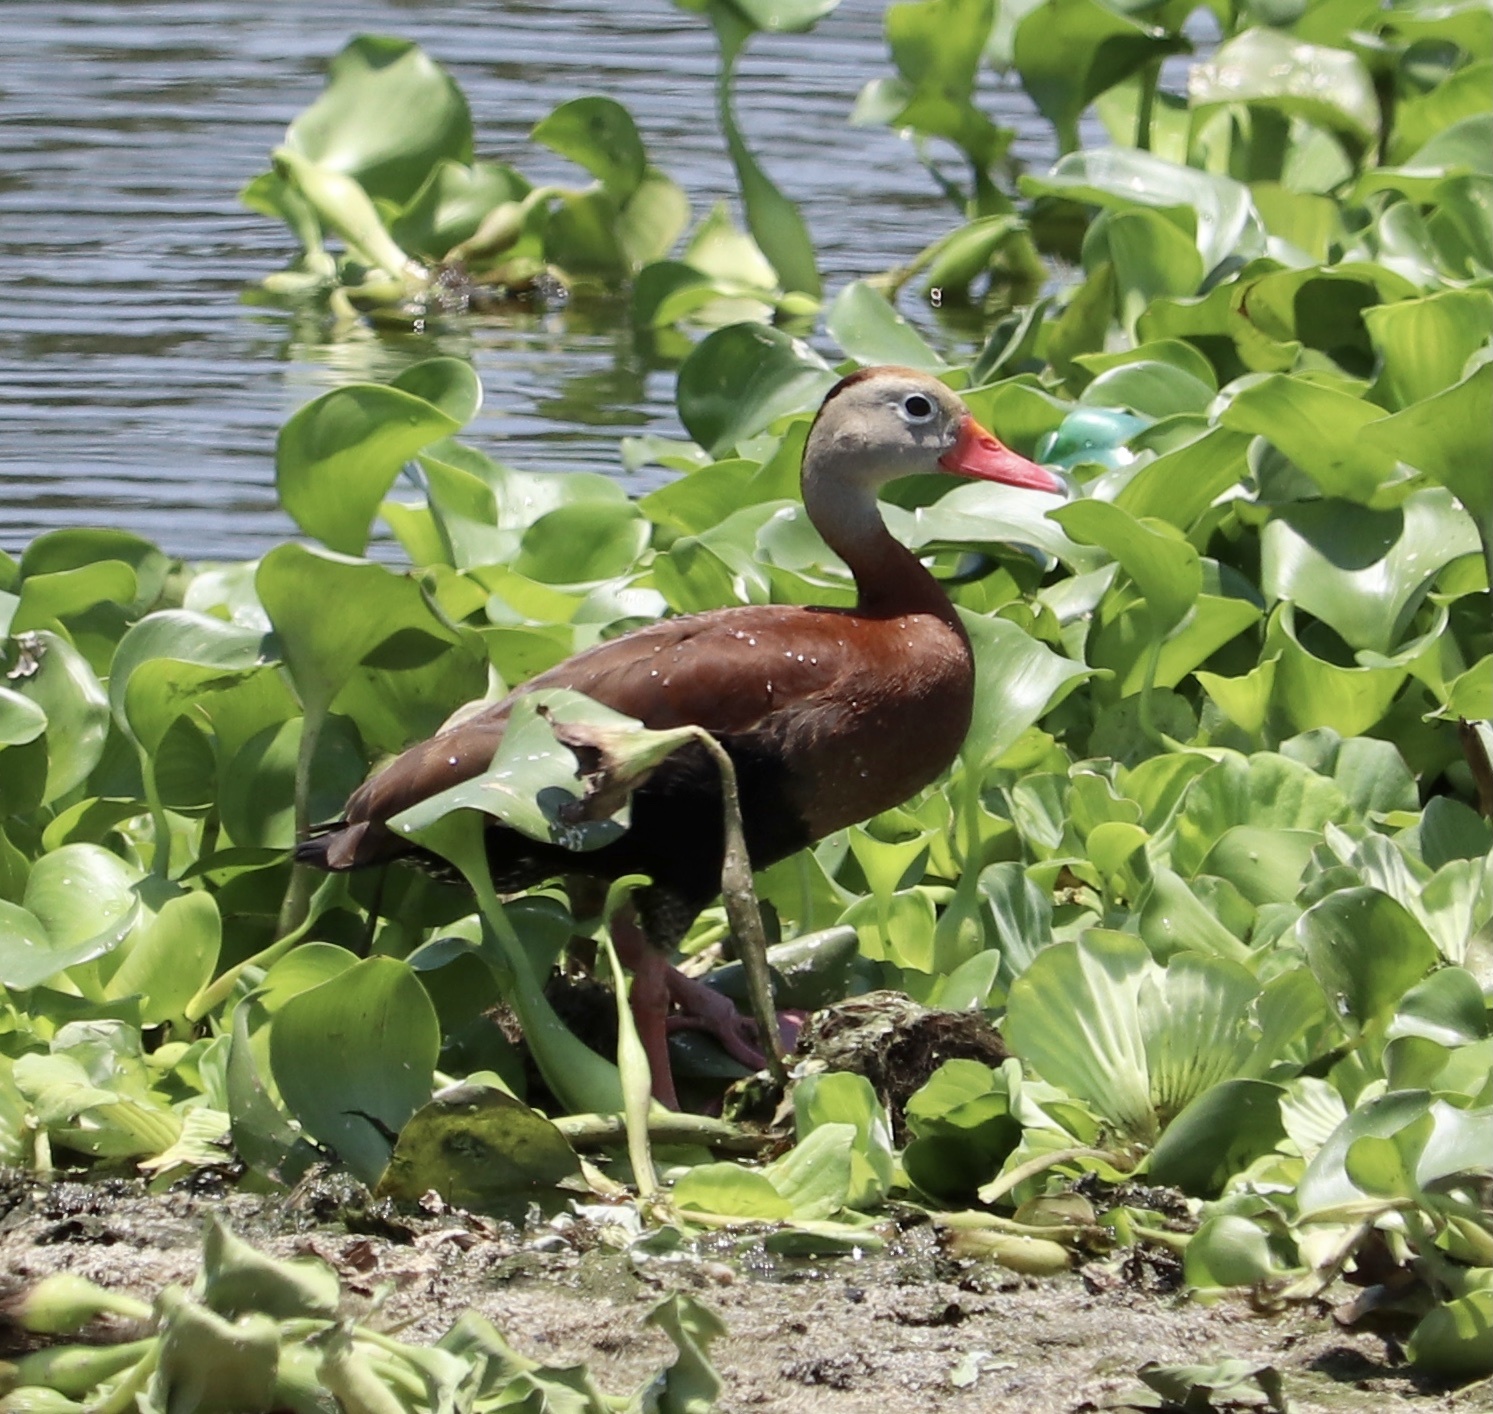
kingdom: Animalia
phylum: Chordata
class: Aves
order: Anseriformes
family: Anatidae
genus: Dendrocygna
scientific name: Dendrocygna autumnalis
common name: Black-bellied whistling duck
